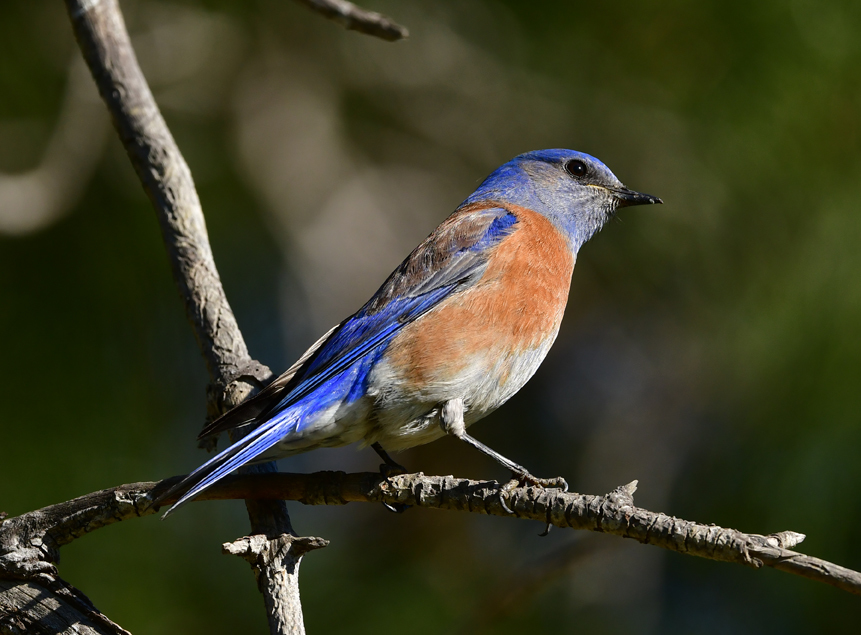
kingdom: Animalia
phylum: Chordata
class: Aves
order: Passeriformes
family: Turdidae
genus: Sialia
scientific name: Sialia mexicana
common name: Western bluebird
